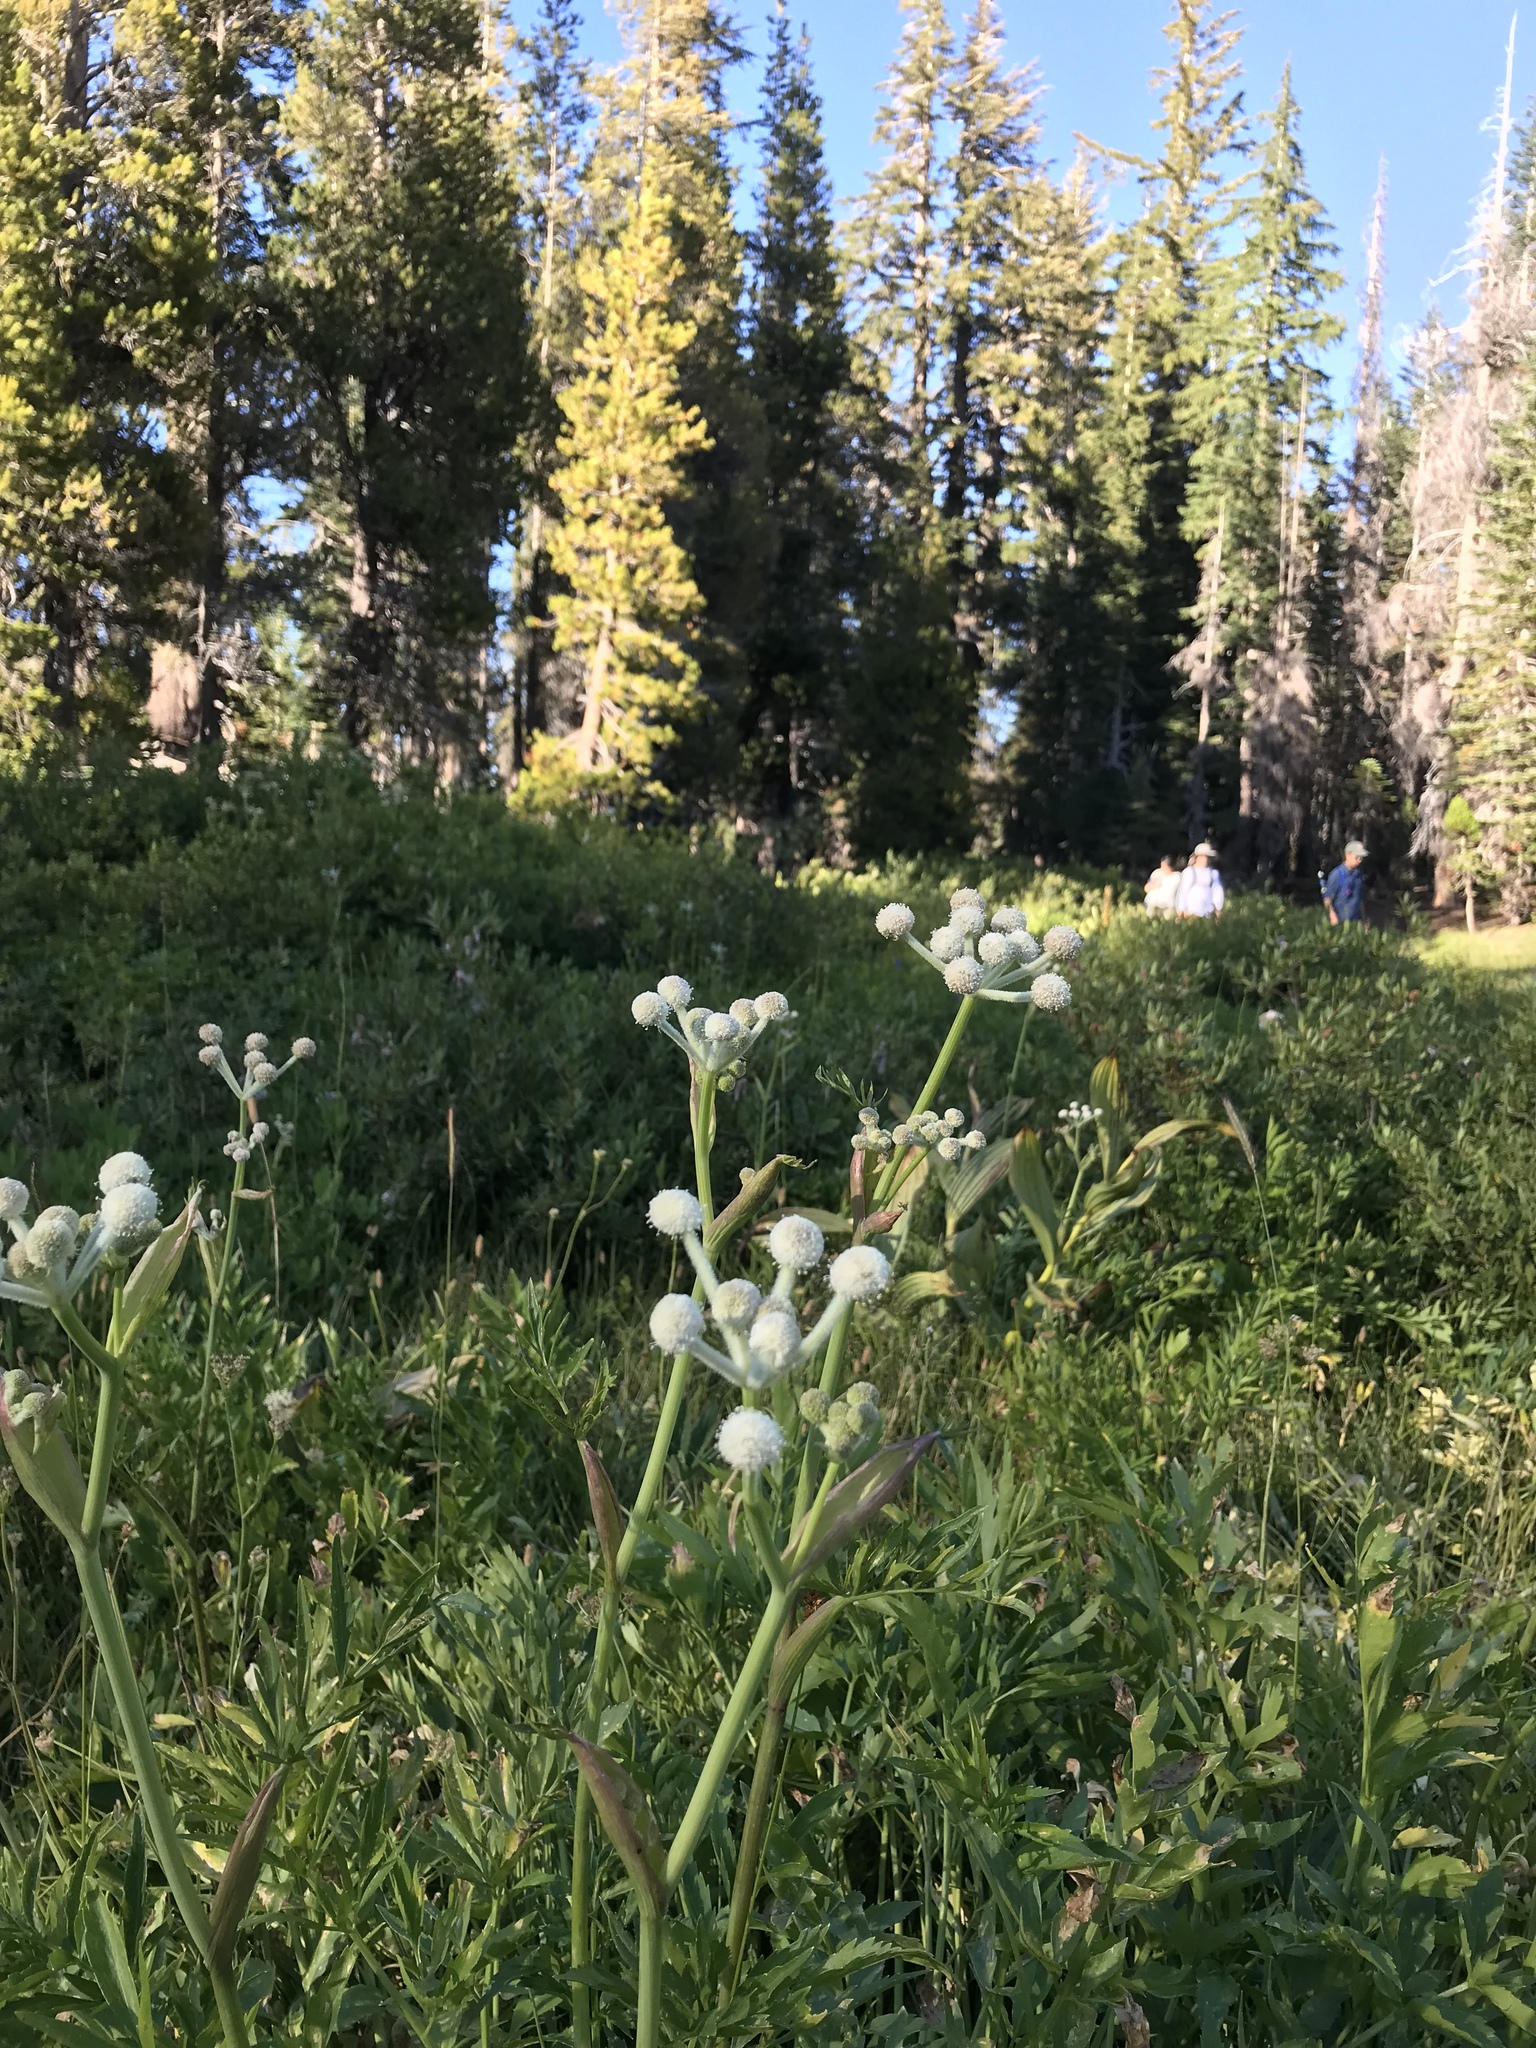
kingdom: Plantae
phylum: Tracheophyta
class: Magnoliopsida
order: Apiales
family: Apiaceae
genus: Angelica
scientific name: Angelica capitellata
